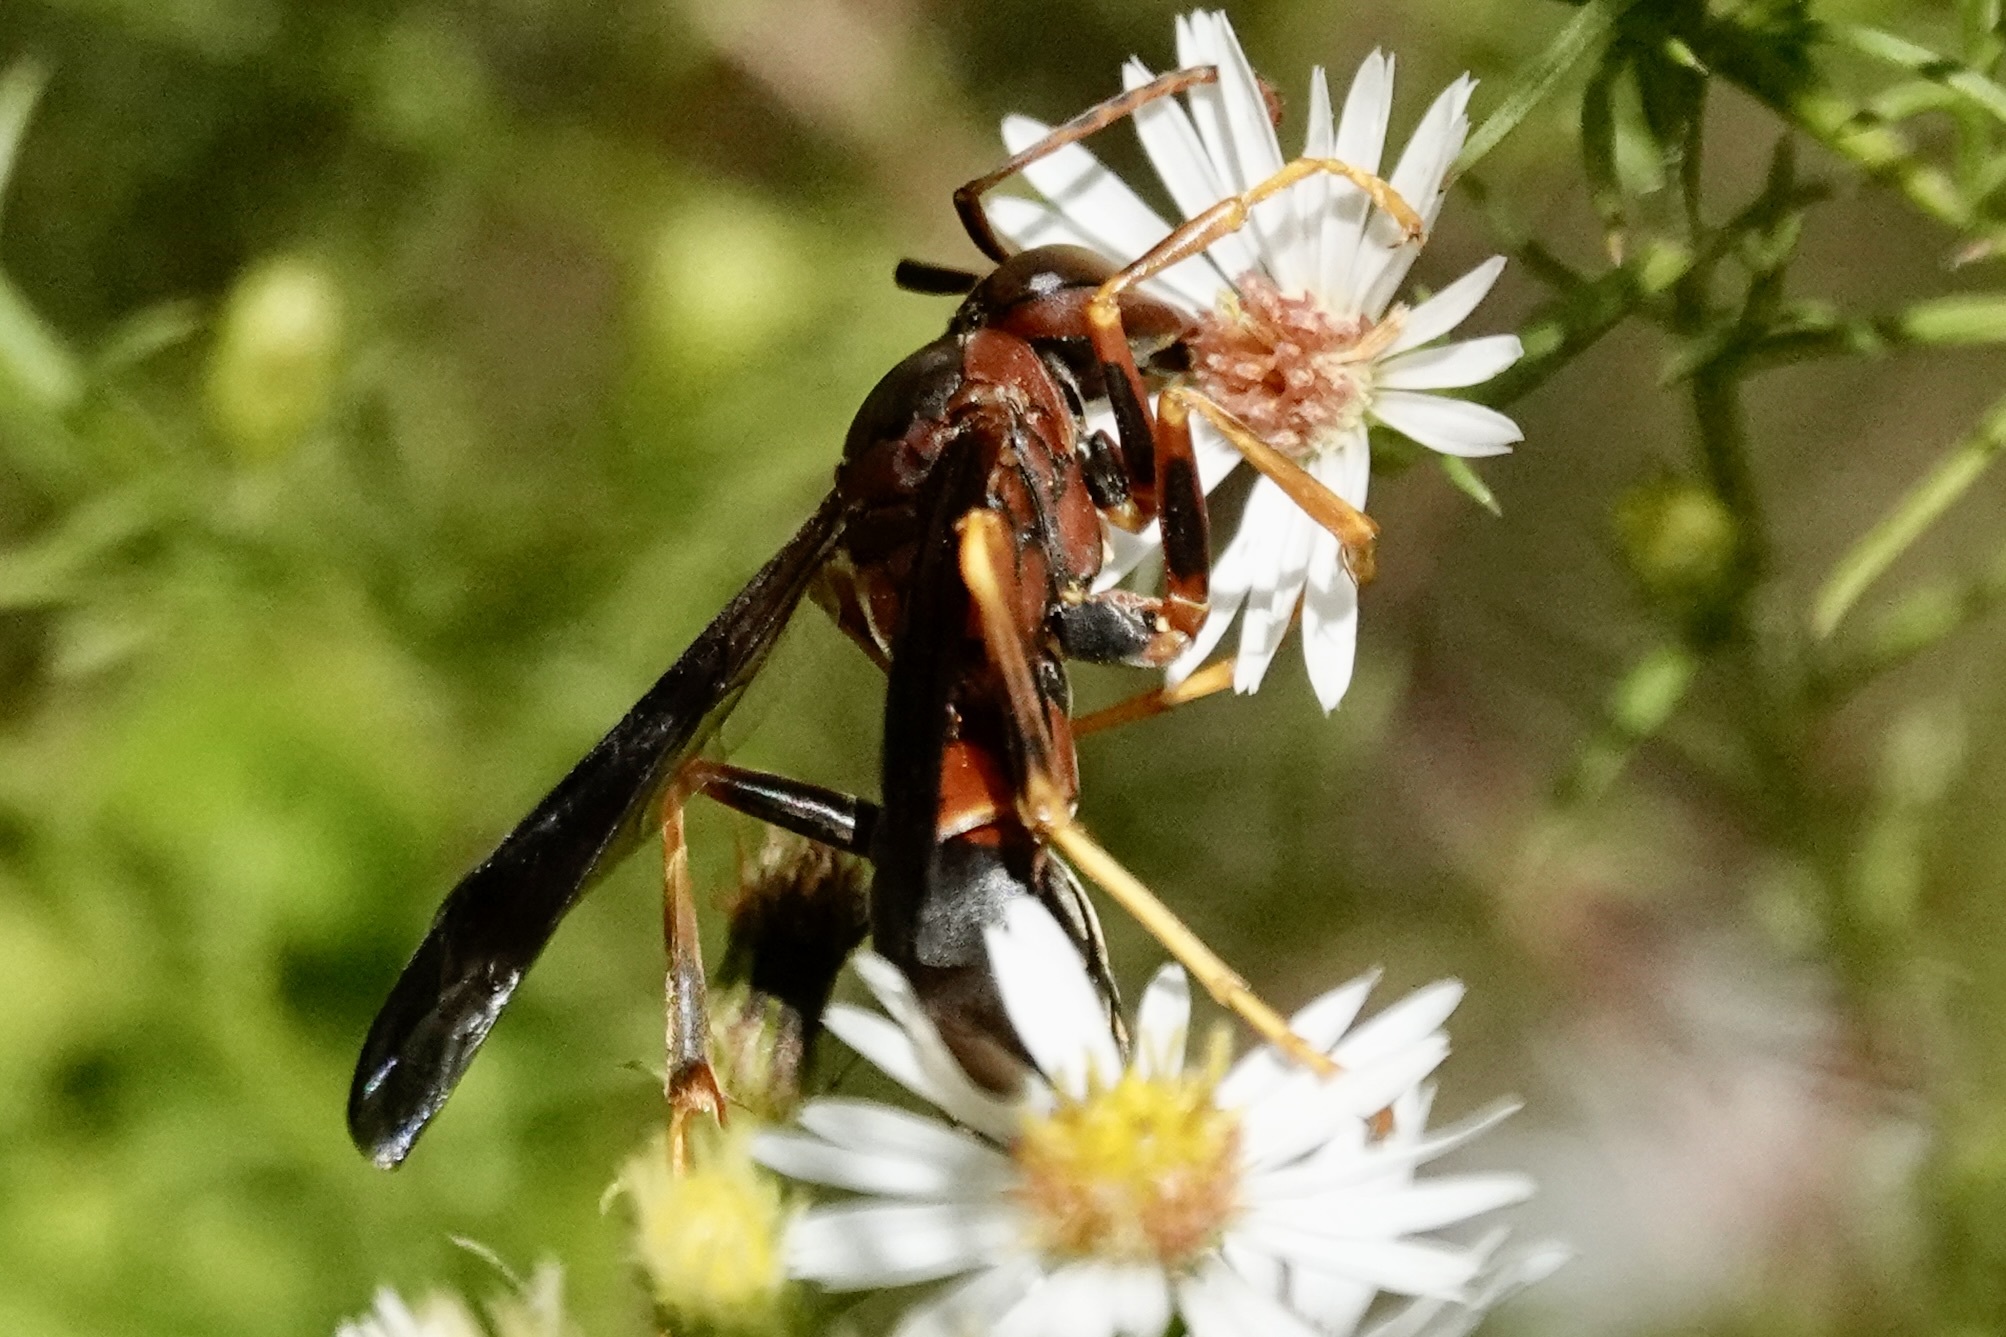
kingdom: Animalia
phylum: Arthropoda
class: Insecta
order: Hymenoptera
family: Eumenidae
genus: Polistes
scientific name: Polistes metricus
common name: Metric paper wasp
